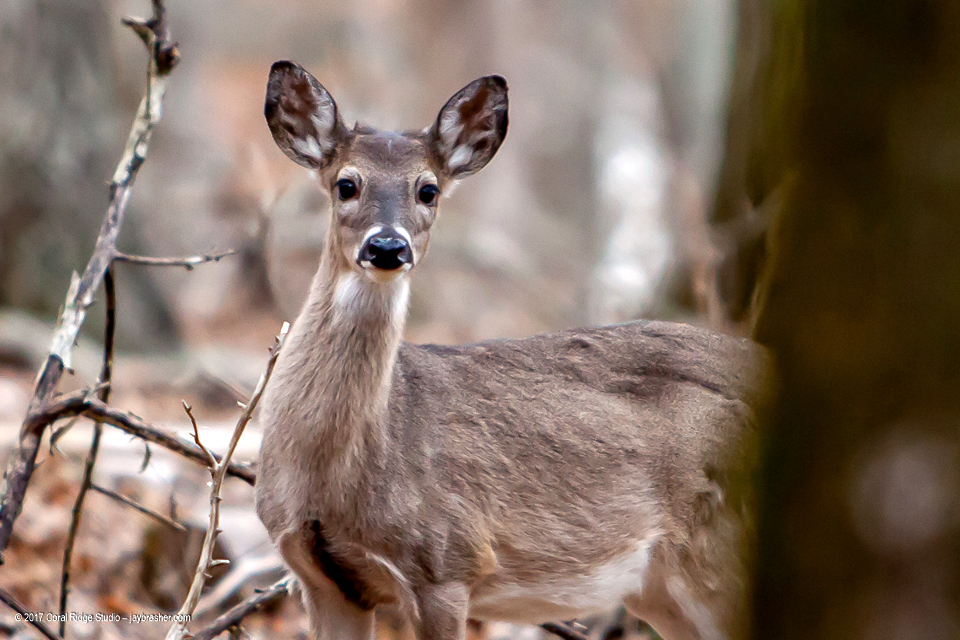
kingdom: Animalia
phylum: Chordata
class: Mammalia
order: Artiodactyla
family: Cervidae
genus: Odocoileus
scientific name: Odocoileus virginianus
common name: White-tailed deer
